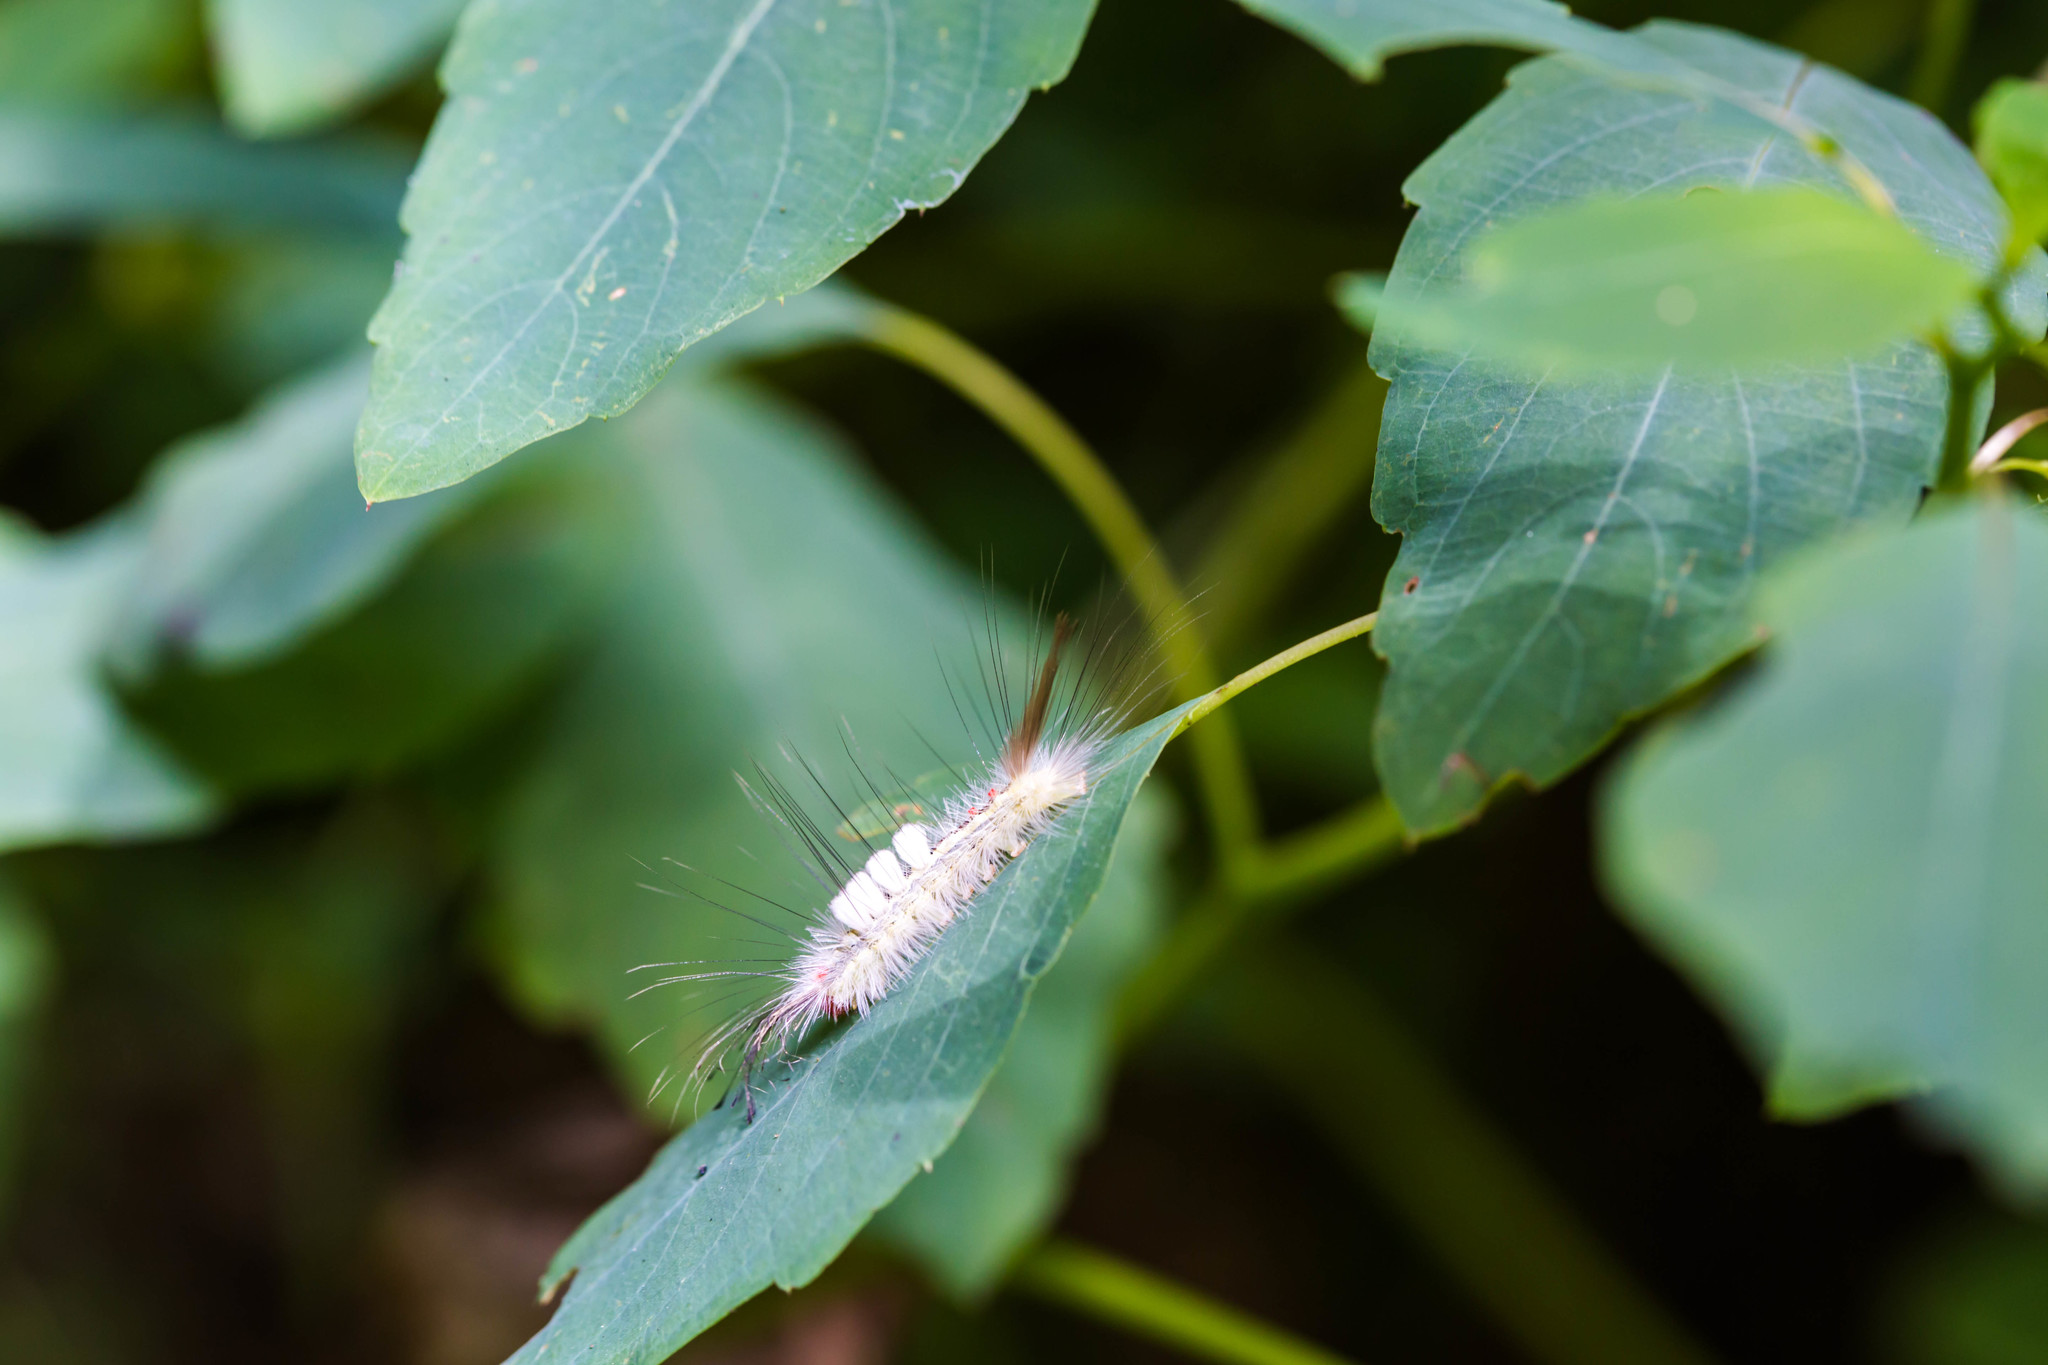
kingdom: Animalia
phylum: Arthropoda
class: Insecta
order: Lepidoptera
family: Erebidae
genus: Orgyia
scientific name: Orgyia leucostigma
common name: White-marked tussock moth
